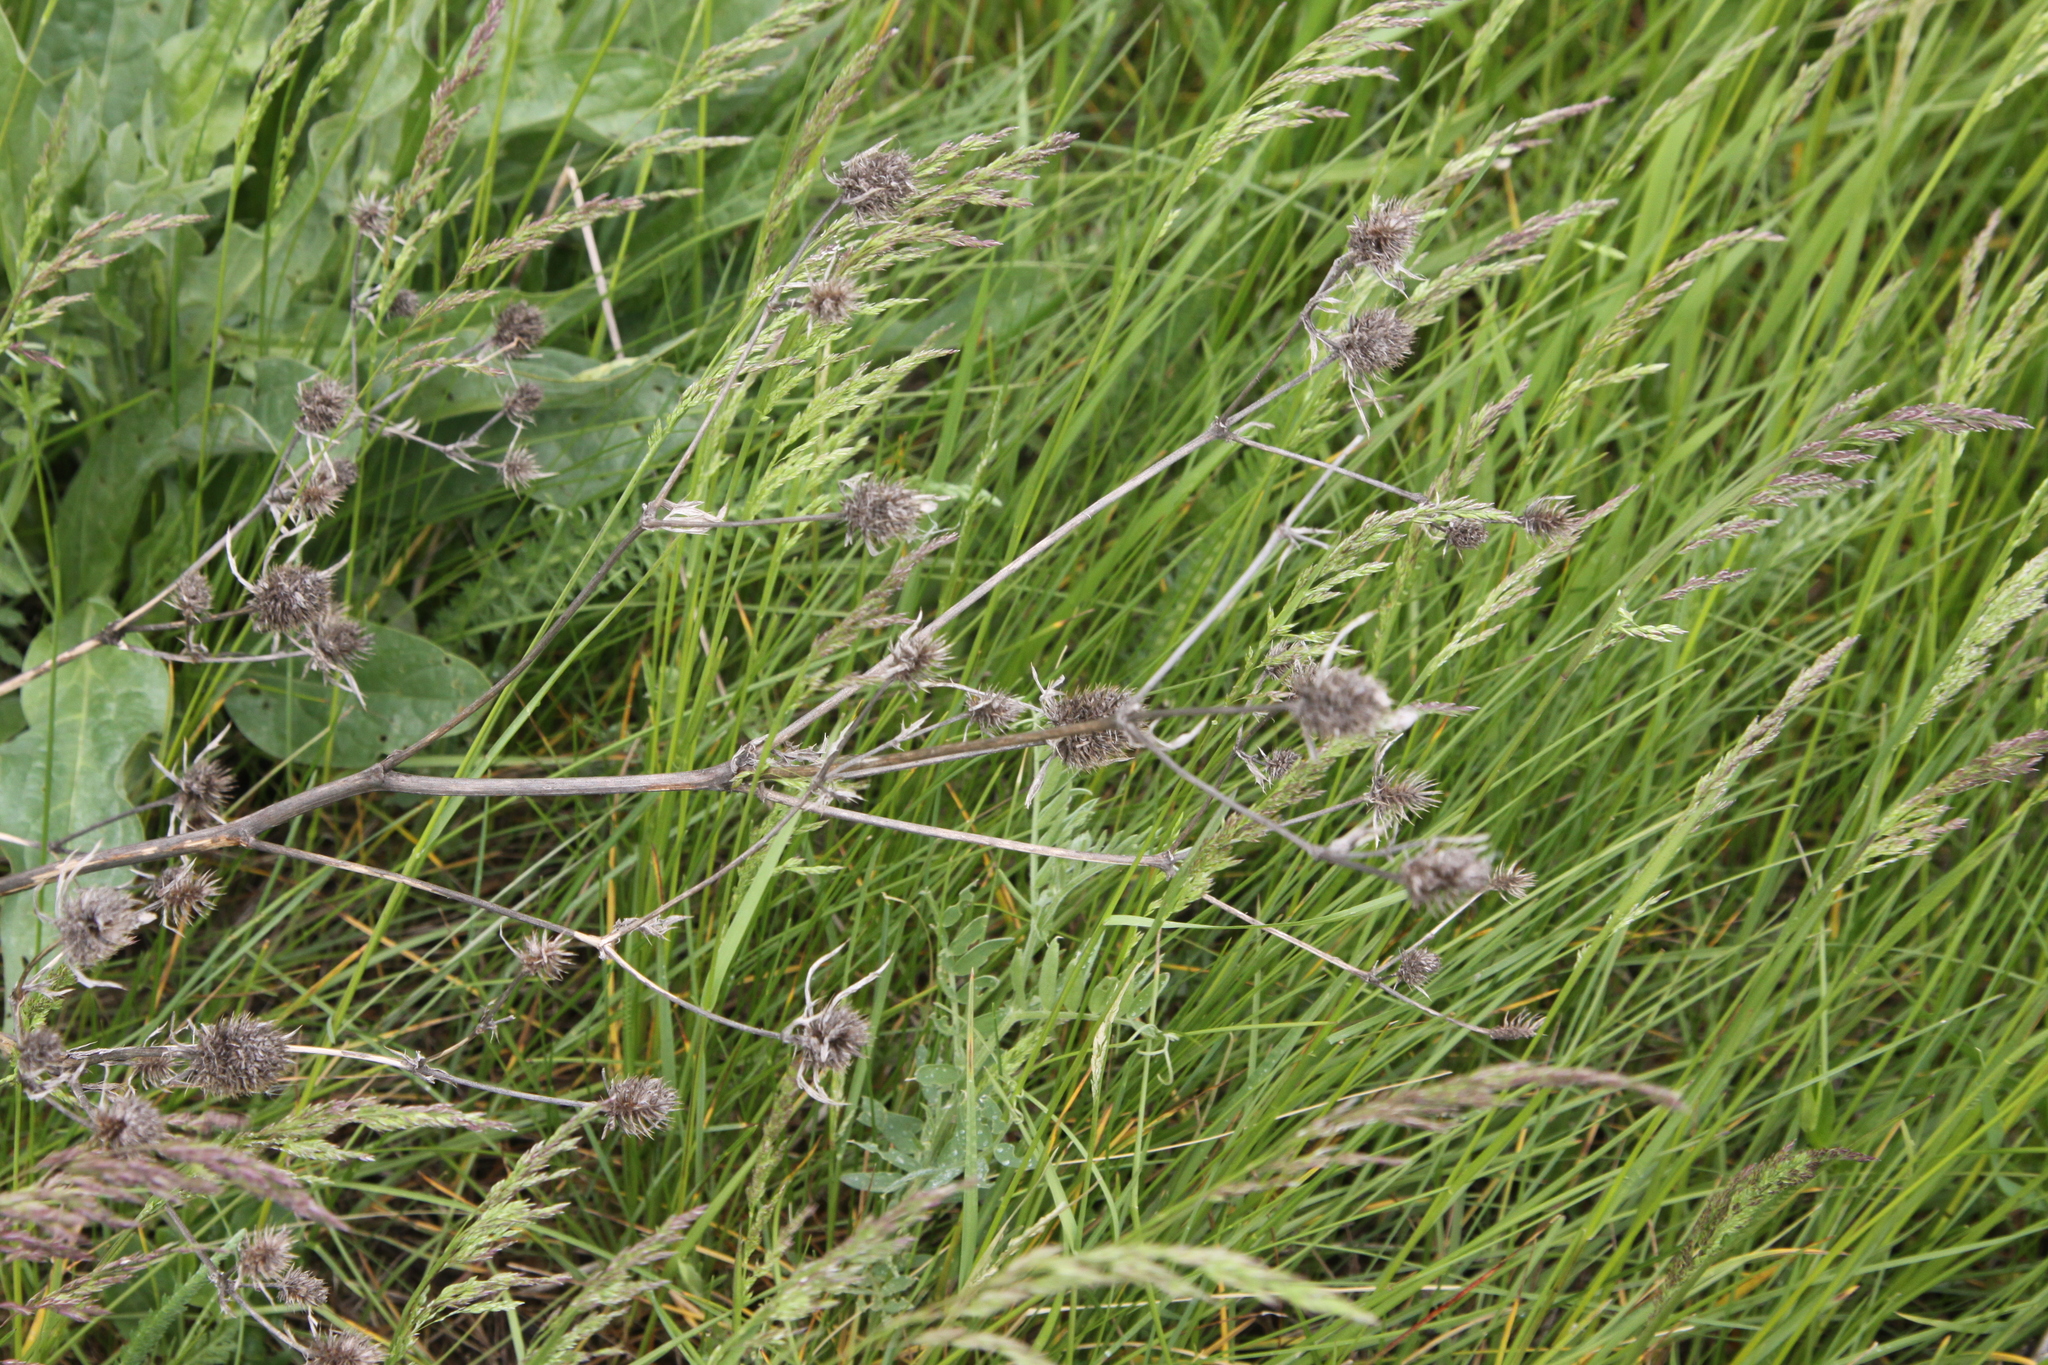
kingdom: Plantae
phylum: Tracheophyta
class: Magnoliopsida
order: Apiales
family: Apiaceae
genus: Eryngium
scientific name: Eryngium planum
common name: Blue eryngo
